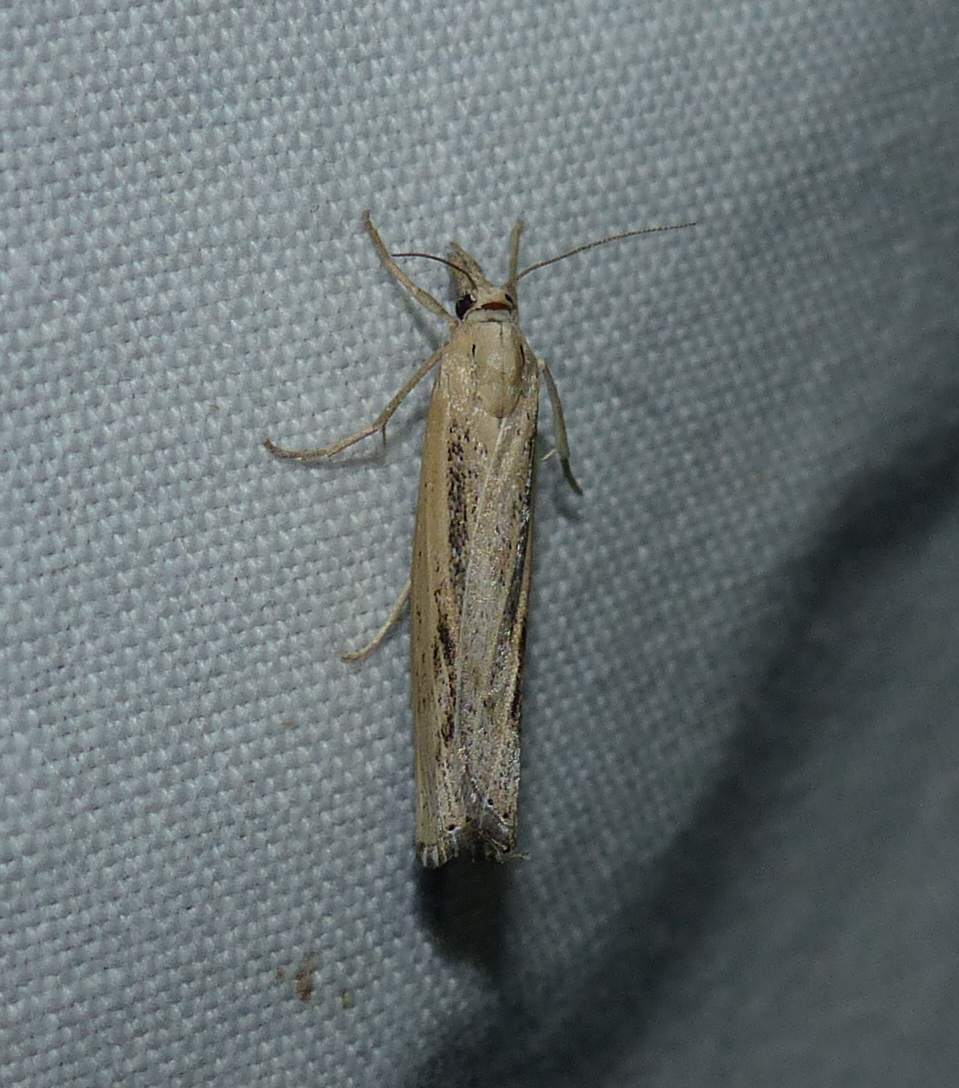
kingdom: Animalia
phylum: Arthropoda
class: Insecta
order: Lepidoptera
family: Crambidae
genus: Pediasia
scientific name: Pediasia trisecta
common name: Sod webworm moth
